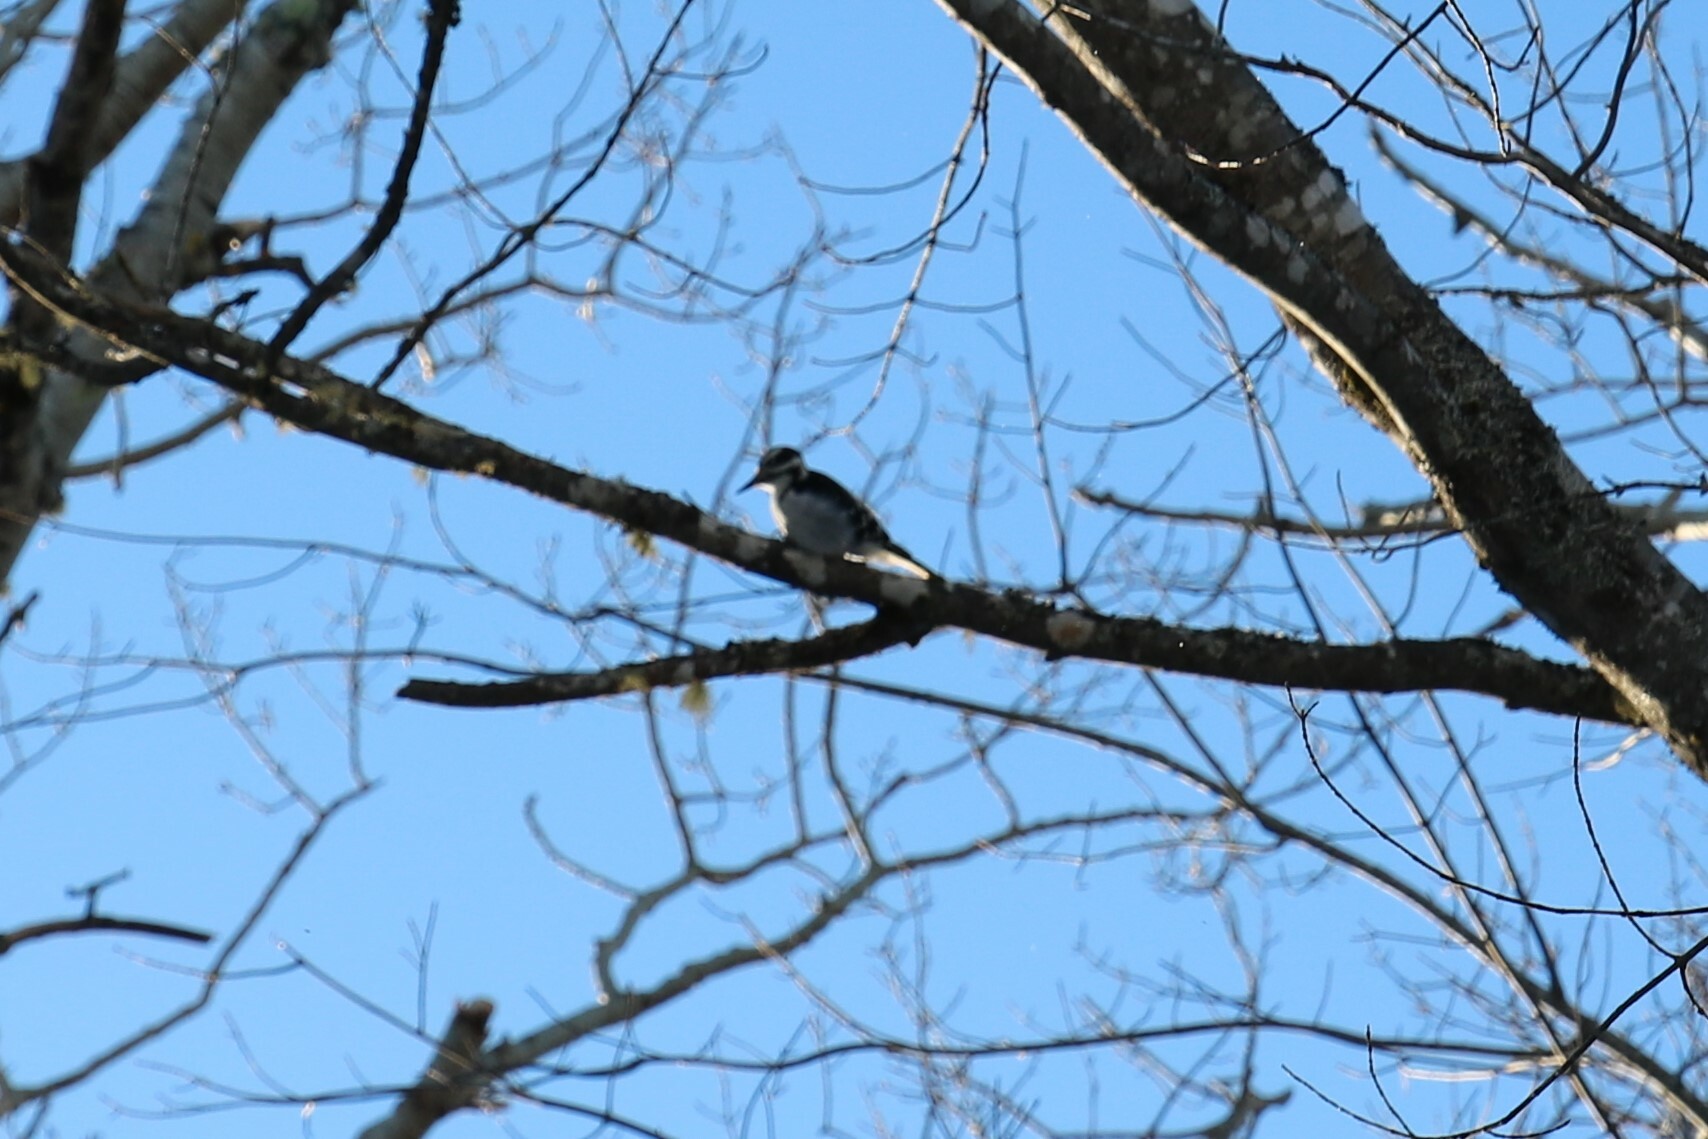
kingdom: Animalia
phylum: Chordata
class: Aves
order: Piciformes
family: Picidae
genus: Leuconotopicus
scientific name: Leuconotopicus villosus
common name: Hairy woodpecker
